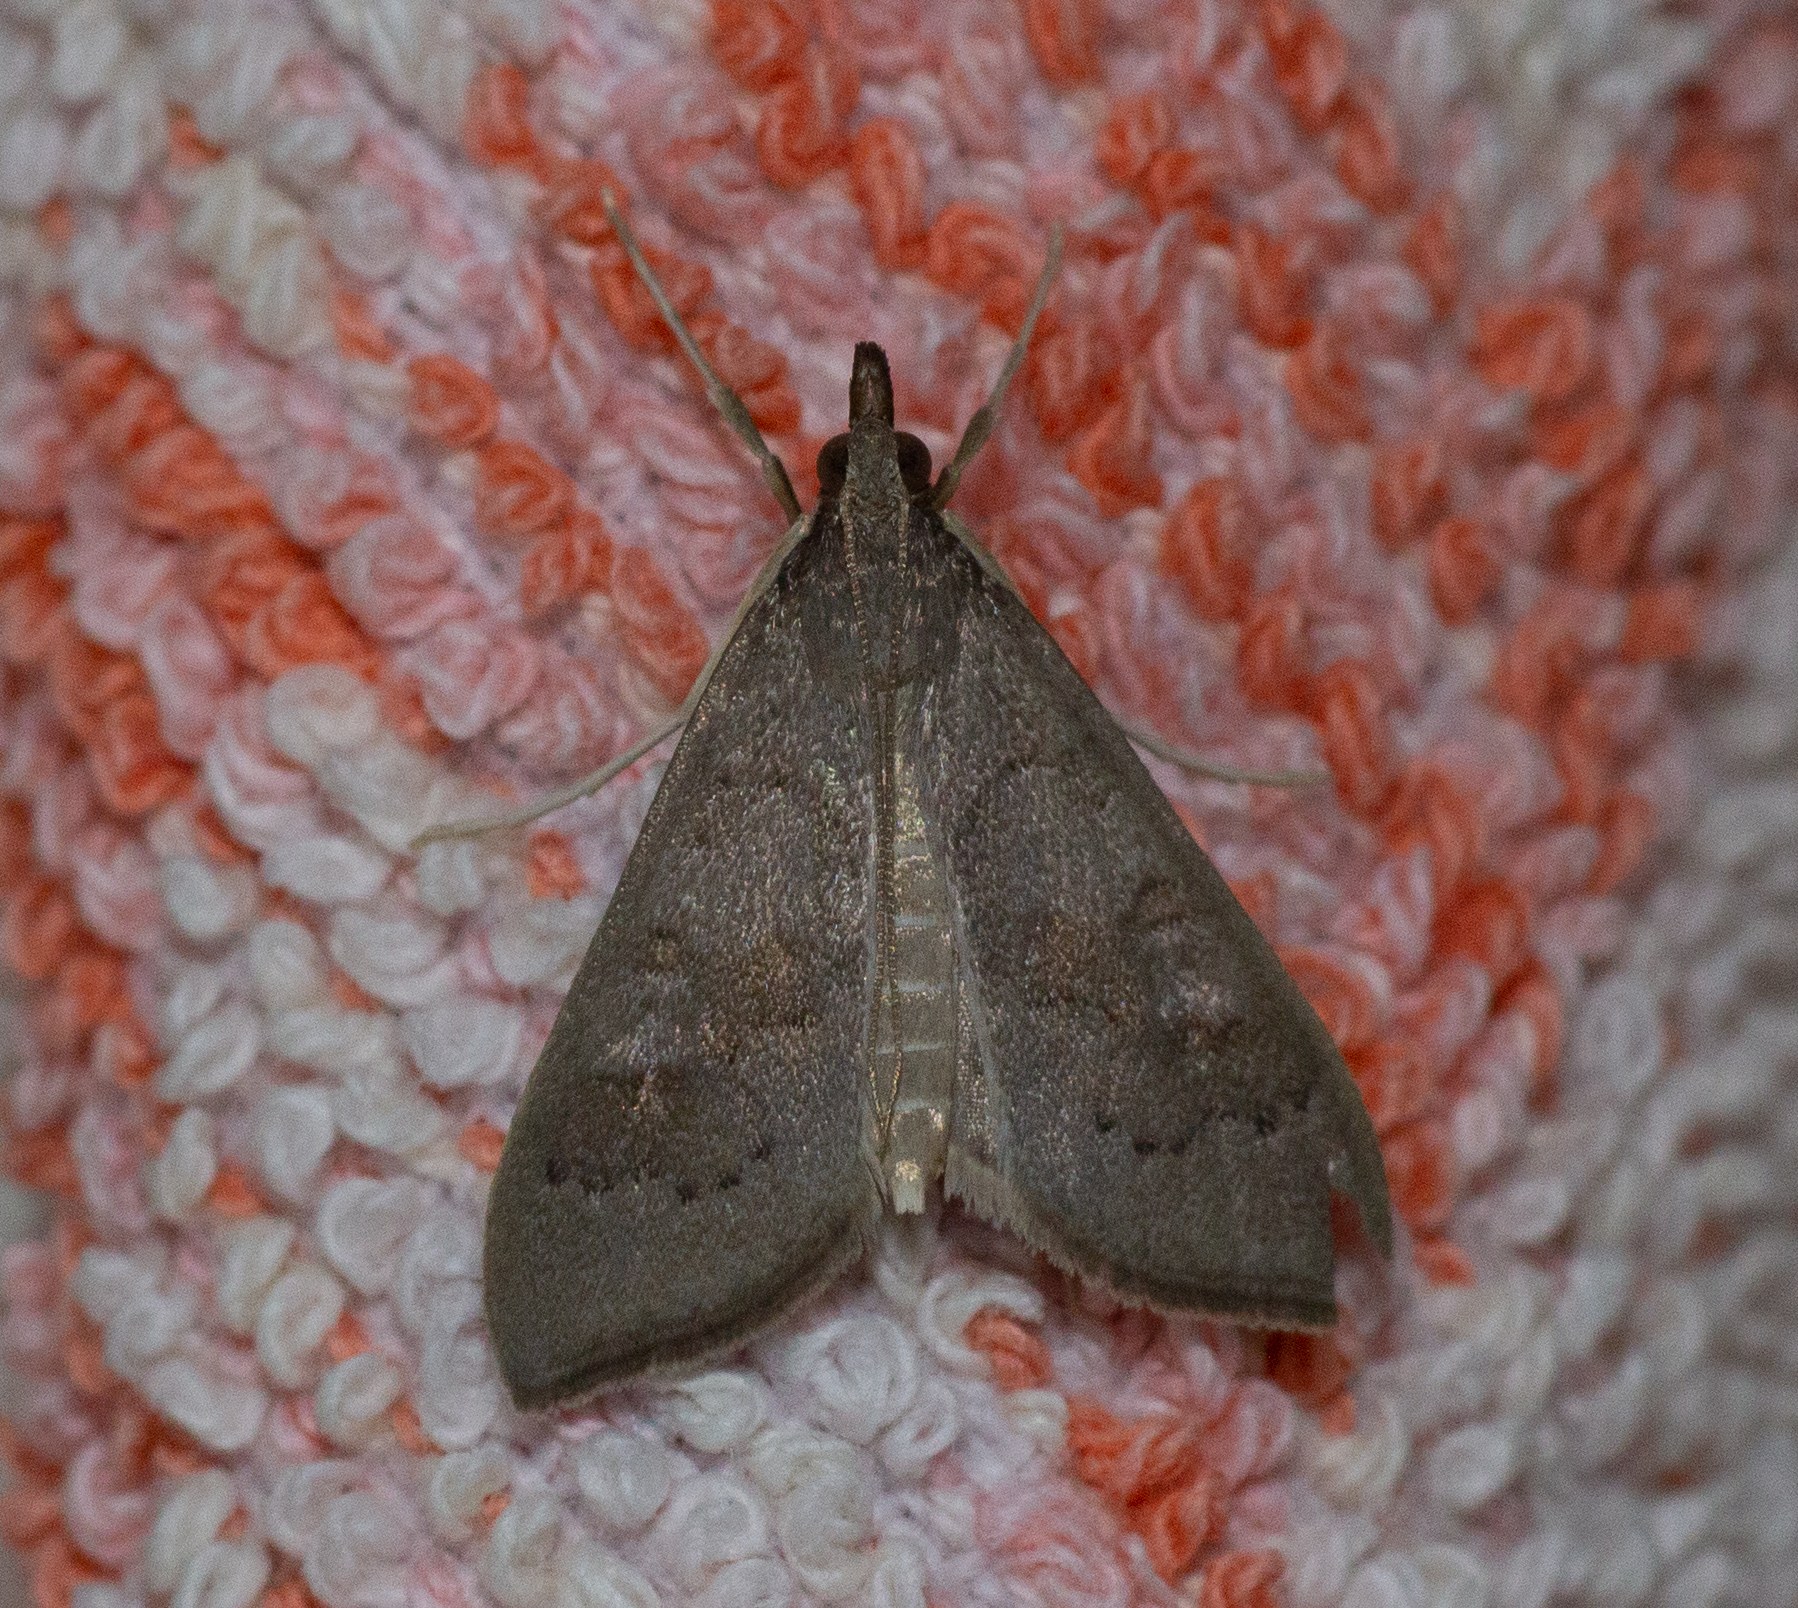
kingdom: Animalia
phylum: Arthropoda
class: Insecta
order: Lepidoptera
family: Crambidae
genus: Mecyna
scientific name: Mecyna asinalis
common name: Coastal pearl
